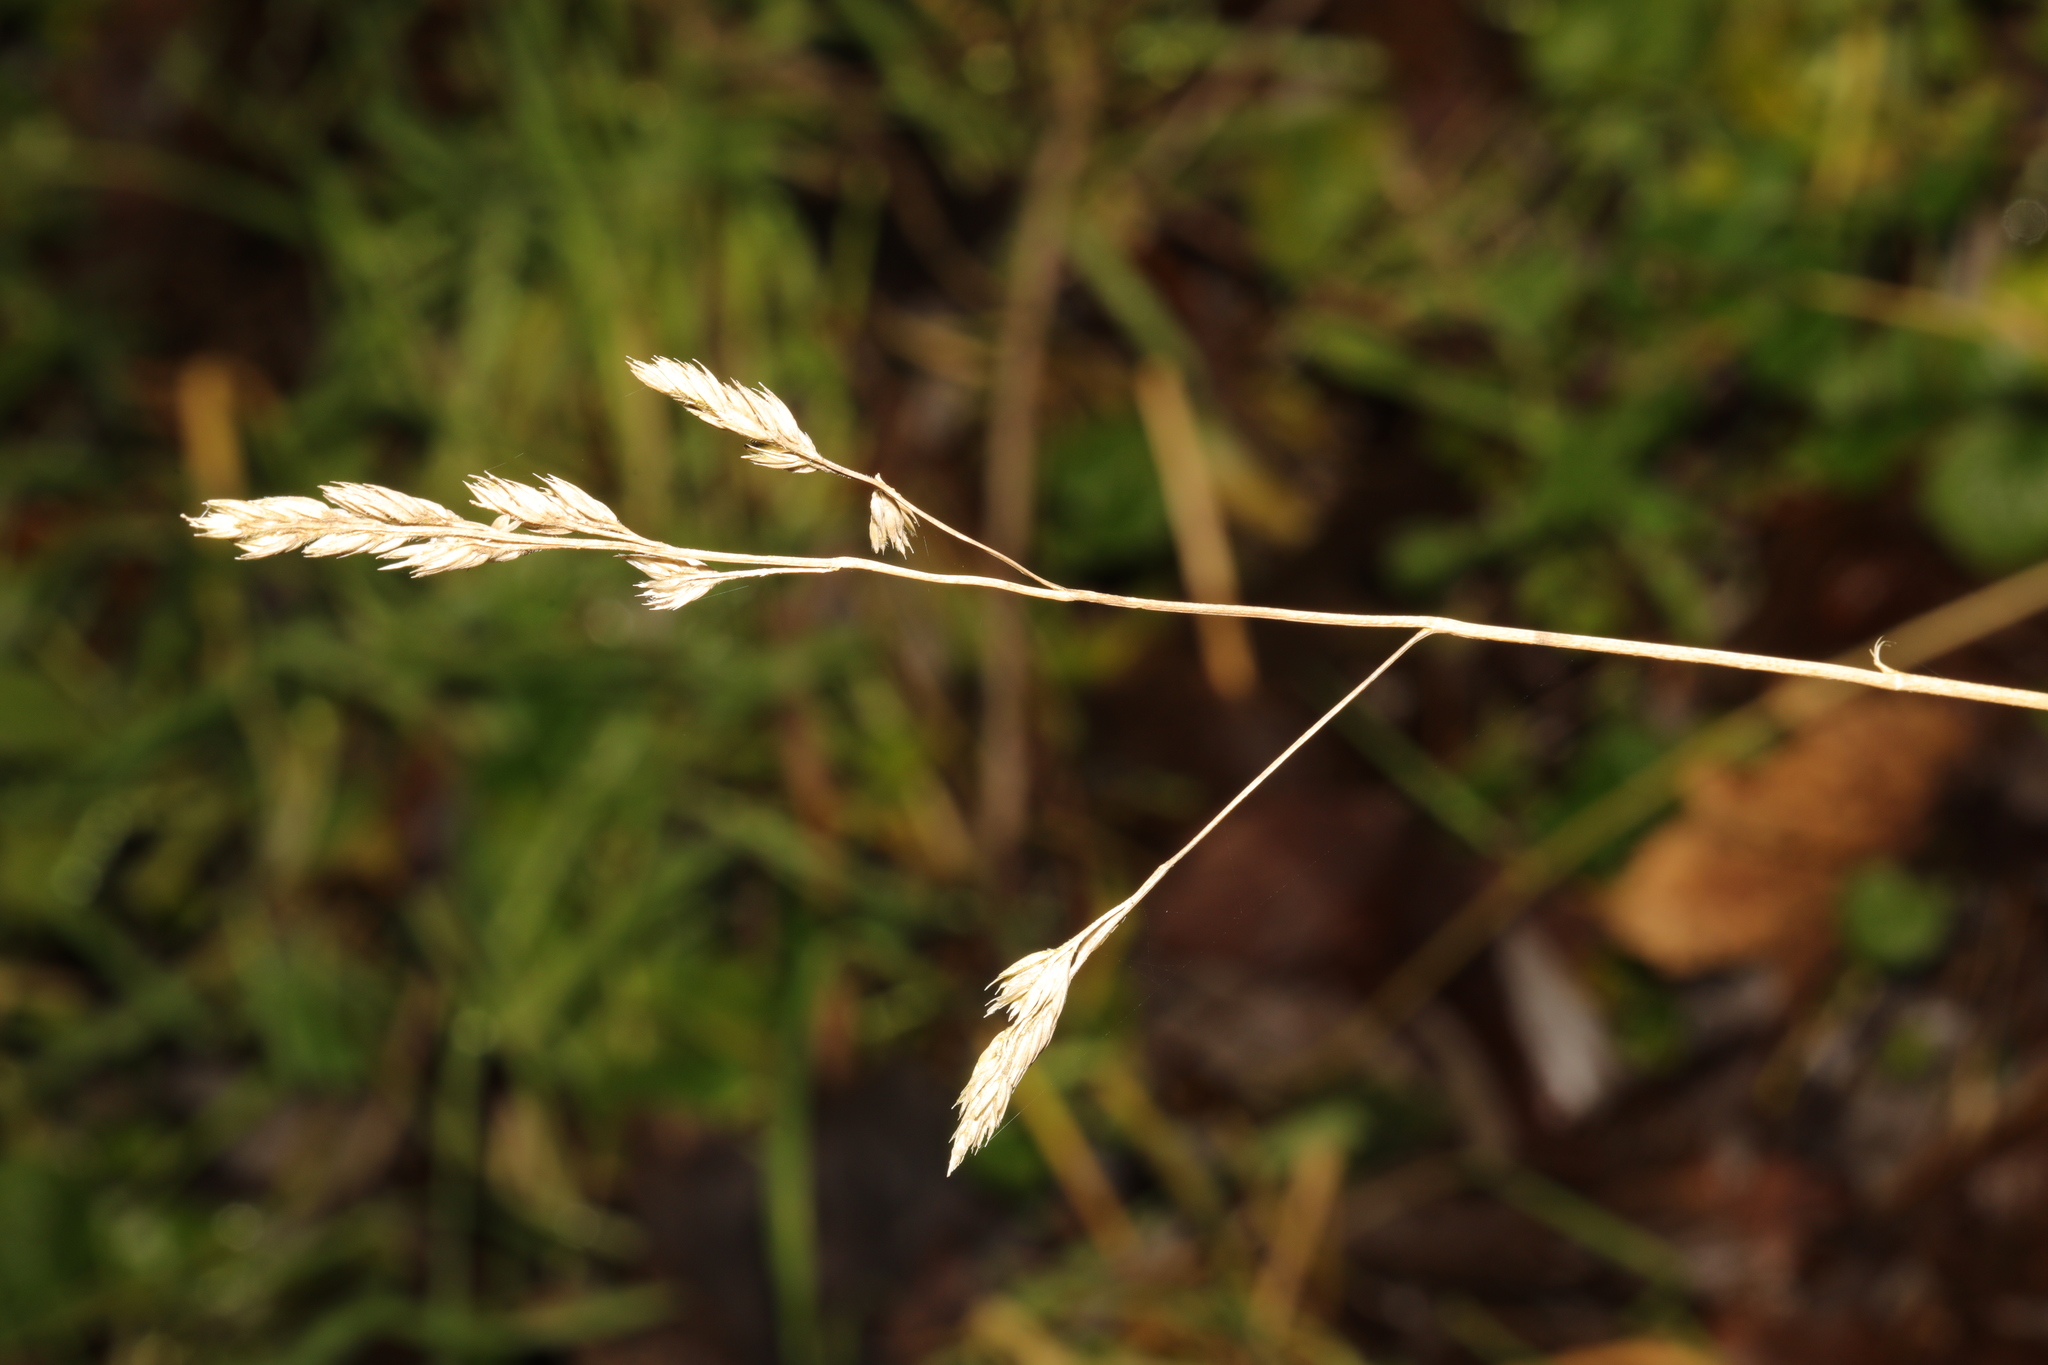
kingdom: Plantae
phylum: Tracheophyta
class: Liliopsida
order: Poales
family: Poaceae
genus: Dactylis
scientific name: Dactylis glomerata
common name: Orchardgrass
